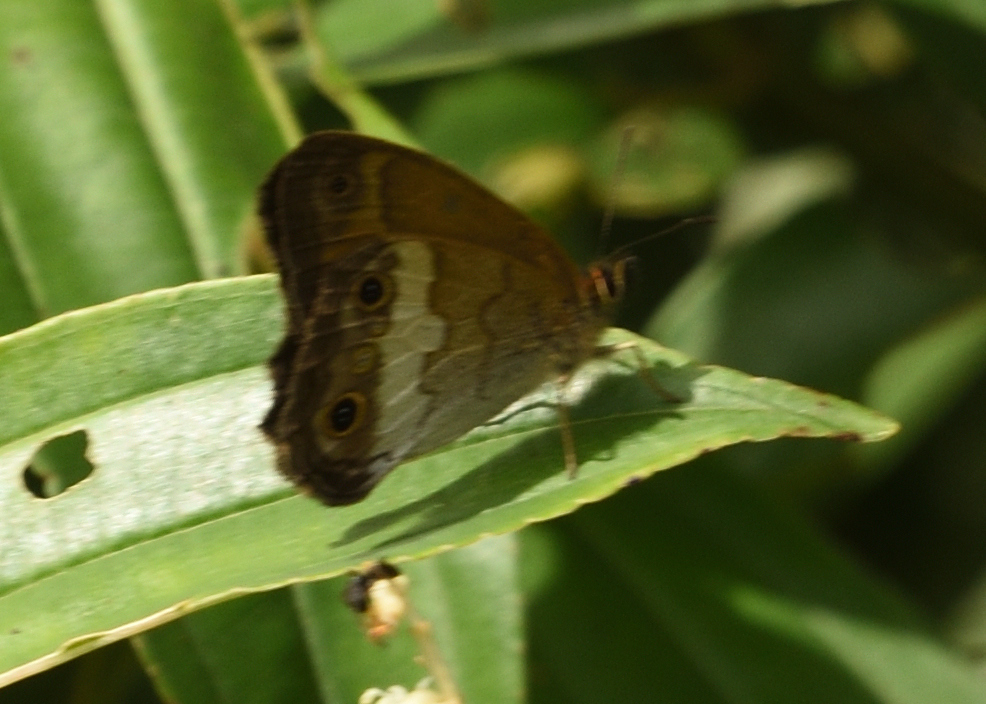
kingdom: Animalia
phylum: Arthropoda
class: Insecta
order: Lepidoptera
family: Nymphalidae
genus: Graphita
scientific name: Graphita griphe
